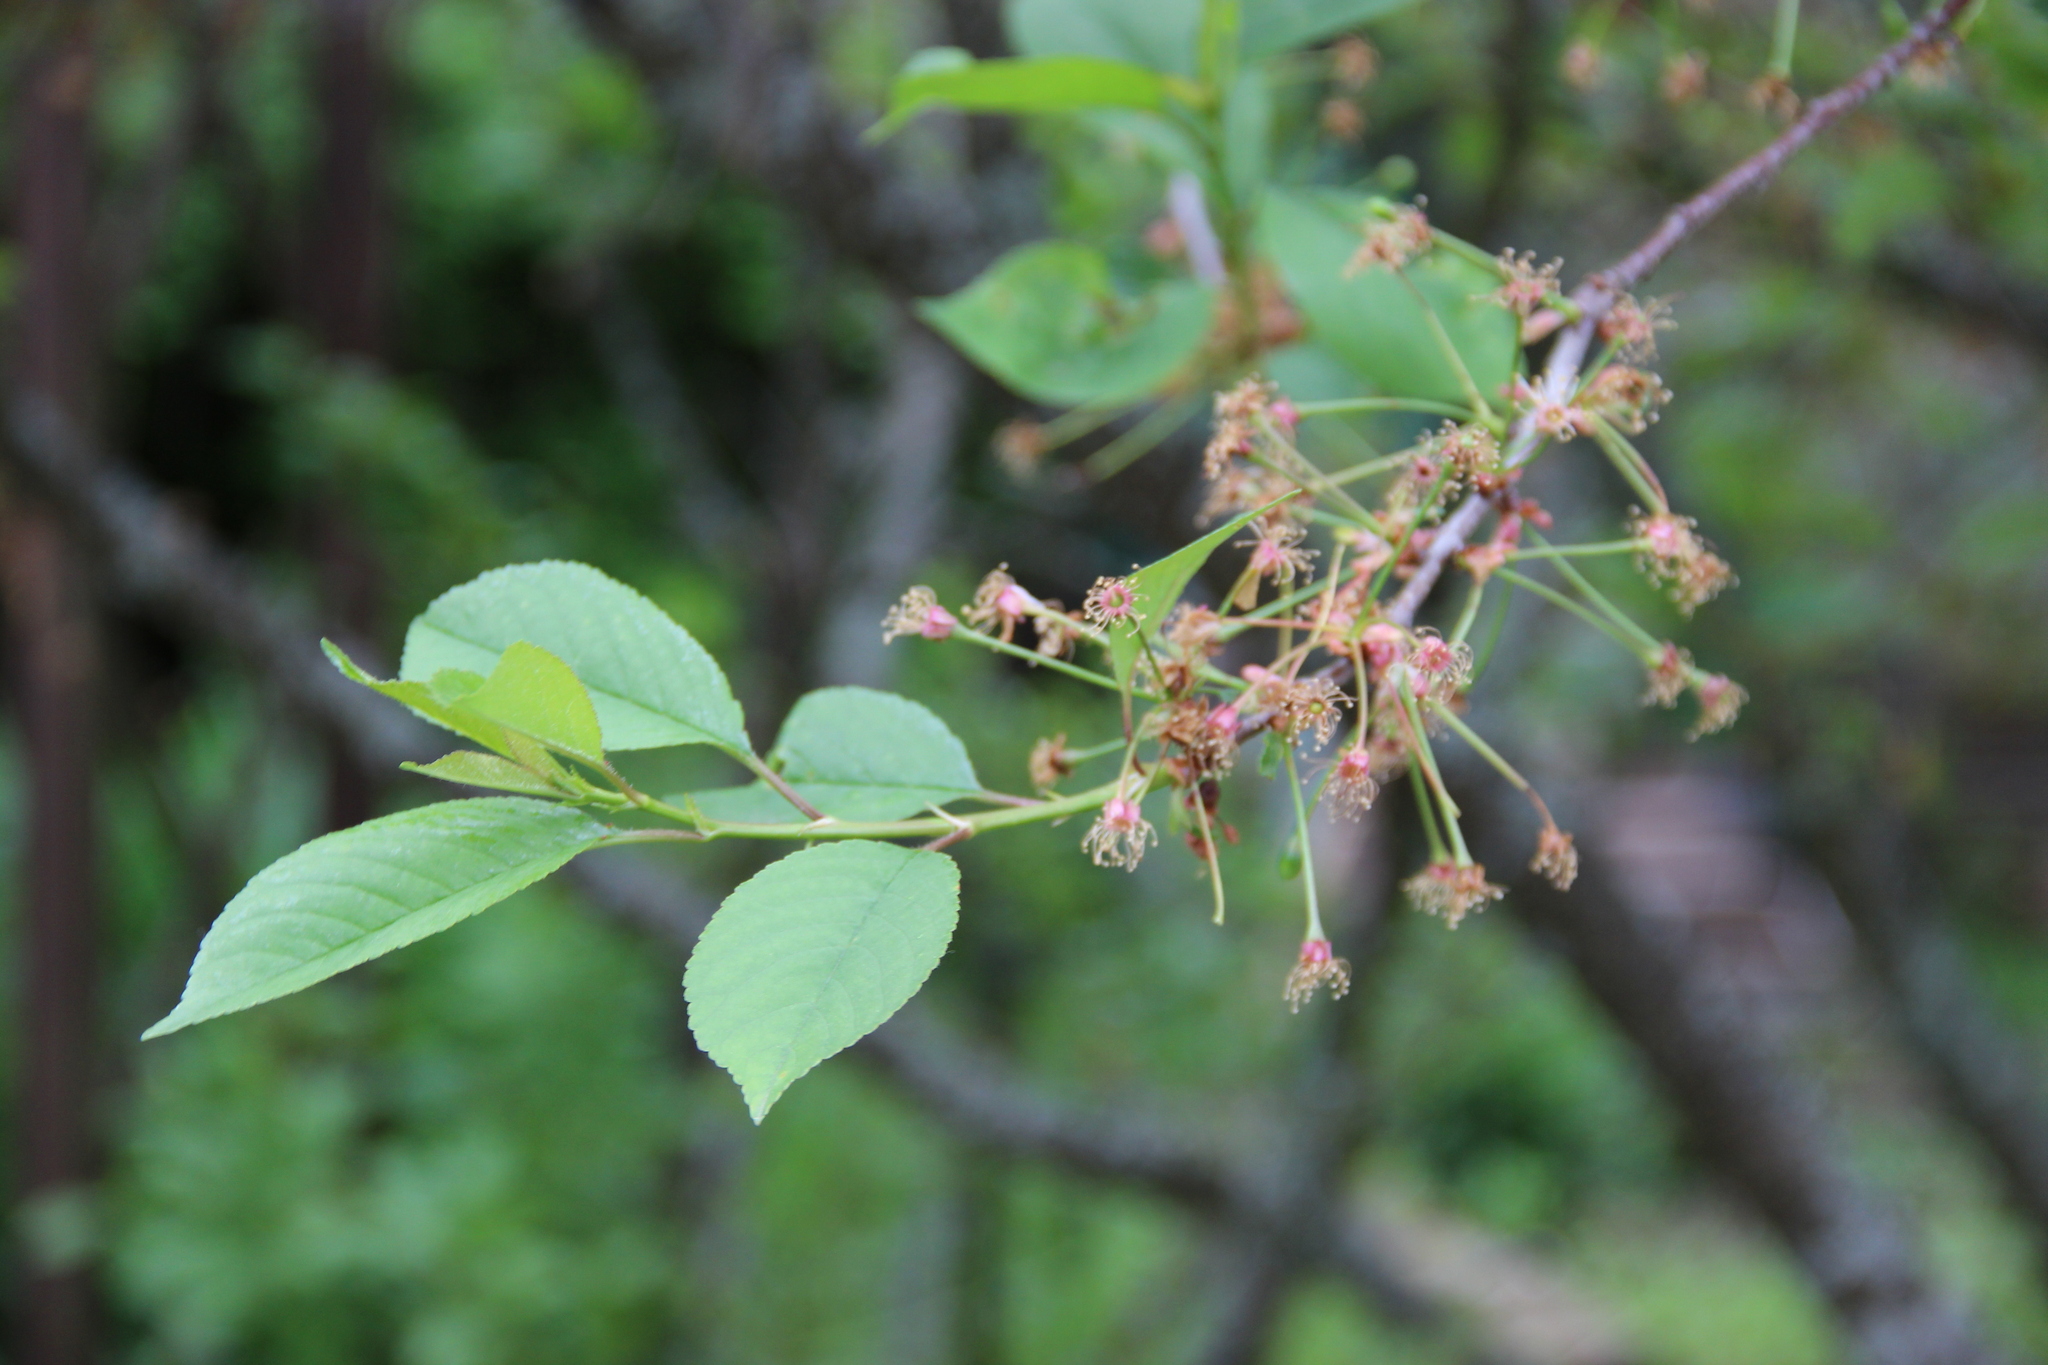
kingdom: Plantae
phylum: Tracheophyta
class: Magnoliopsida
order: Rosales
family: Rosaceae
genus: Prunus
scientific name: Prunus cerasus
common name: Morello cherry
